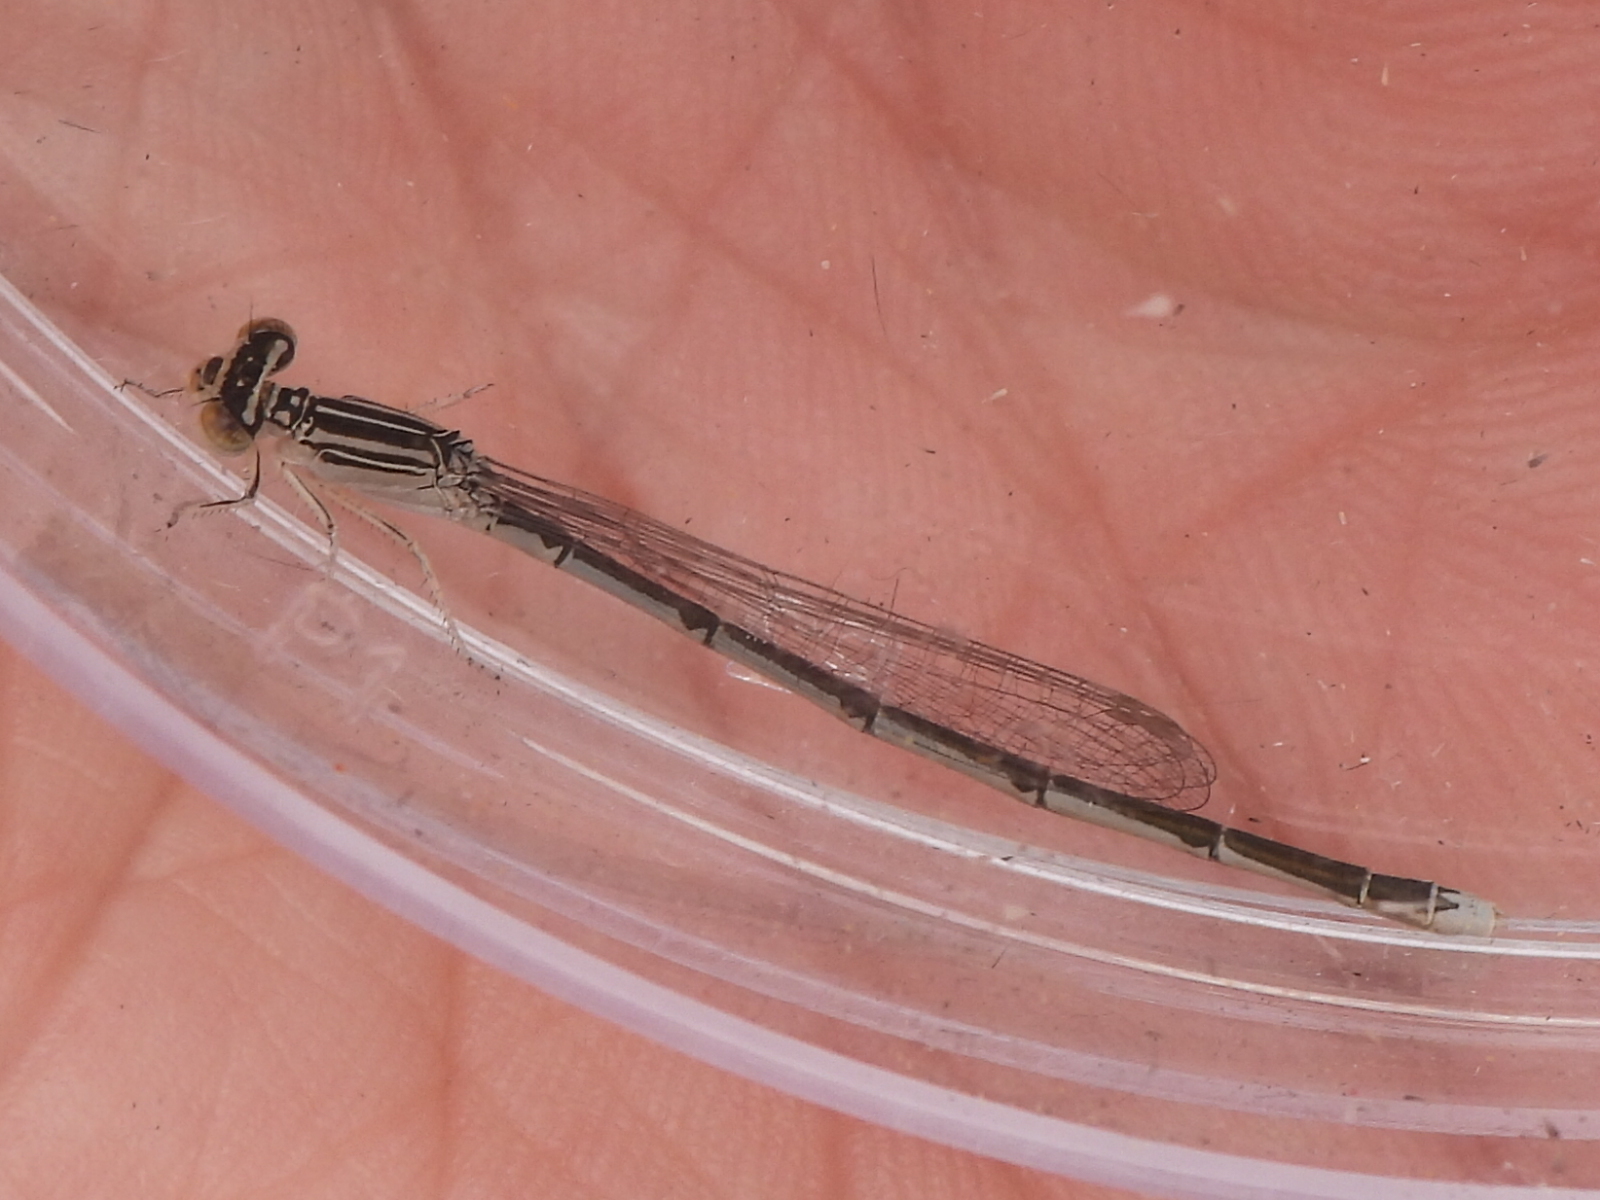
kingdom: Animalia
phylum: Arthropoda
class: Insecta
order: Odonata
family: Coenagrionidae
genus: Enallagma
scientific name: Enallagma basidens
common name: Double-striped bluet
